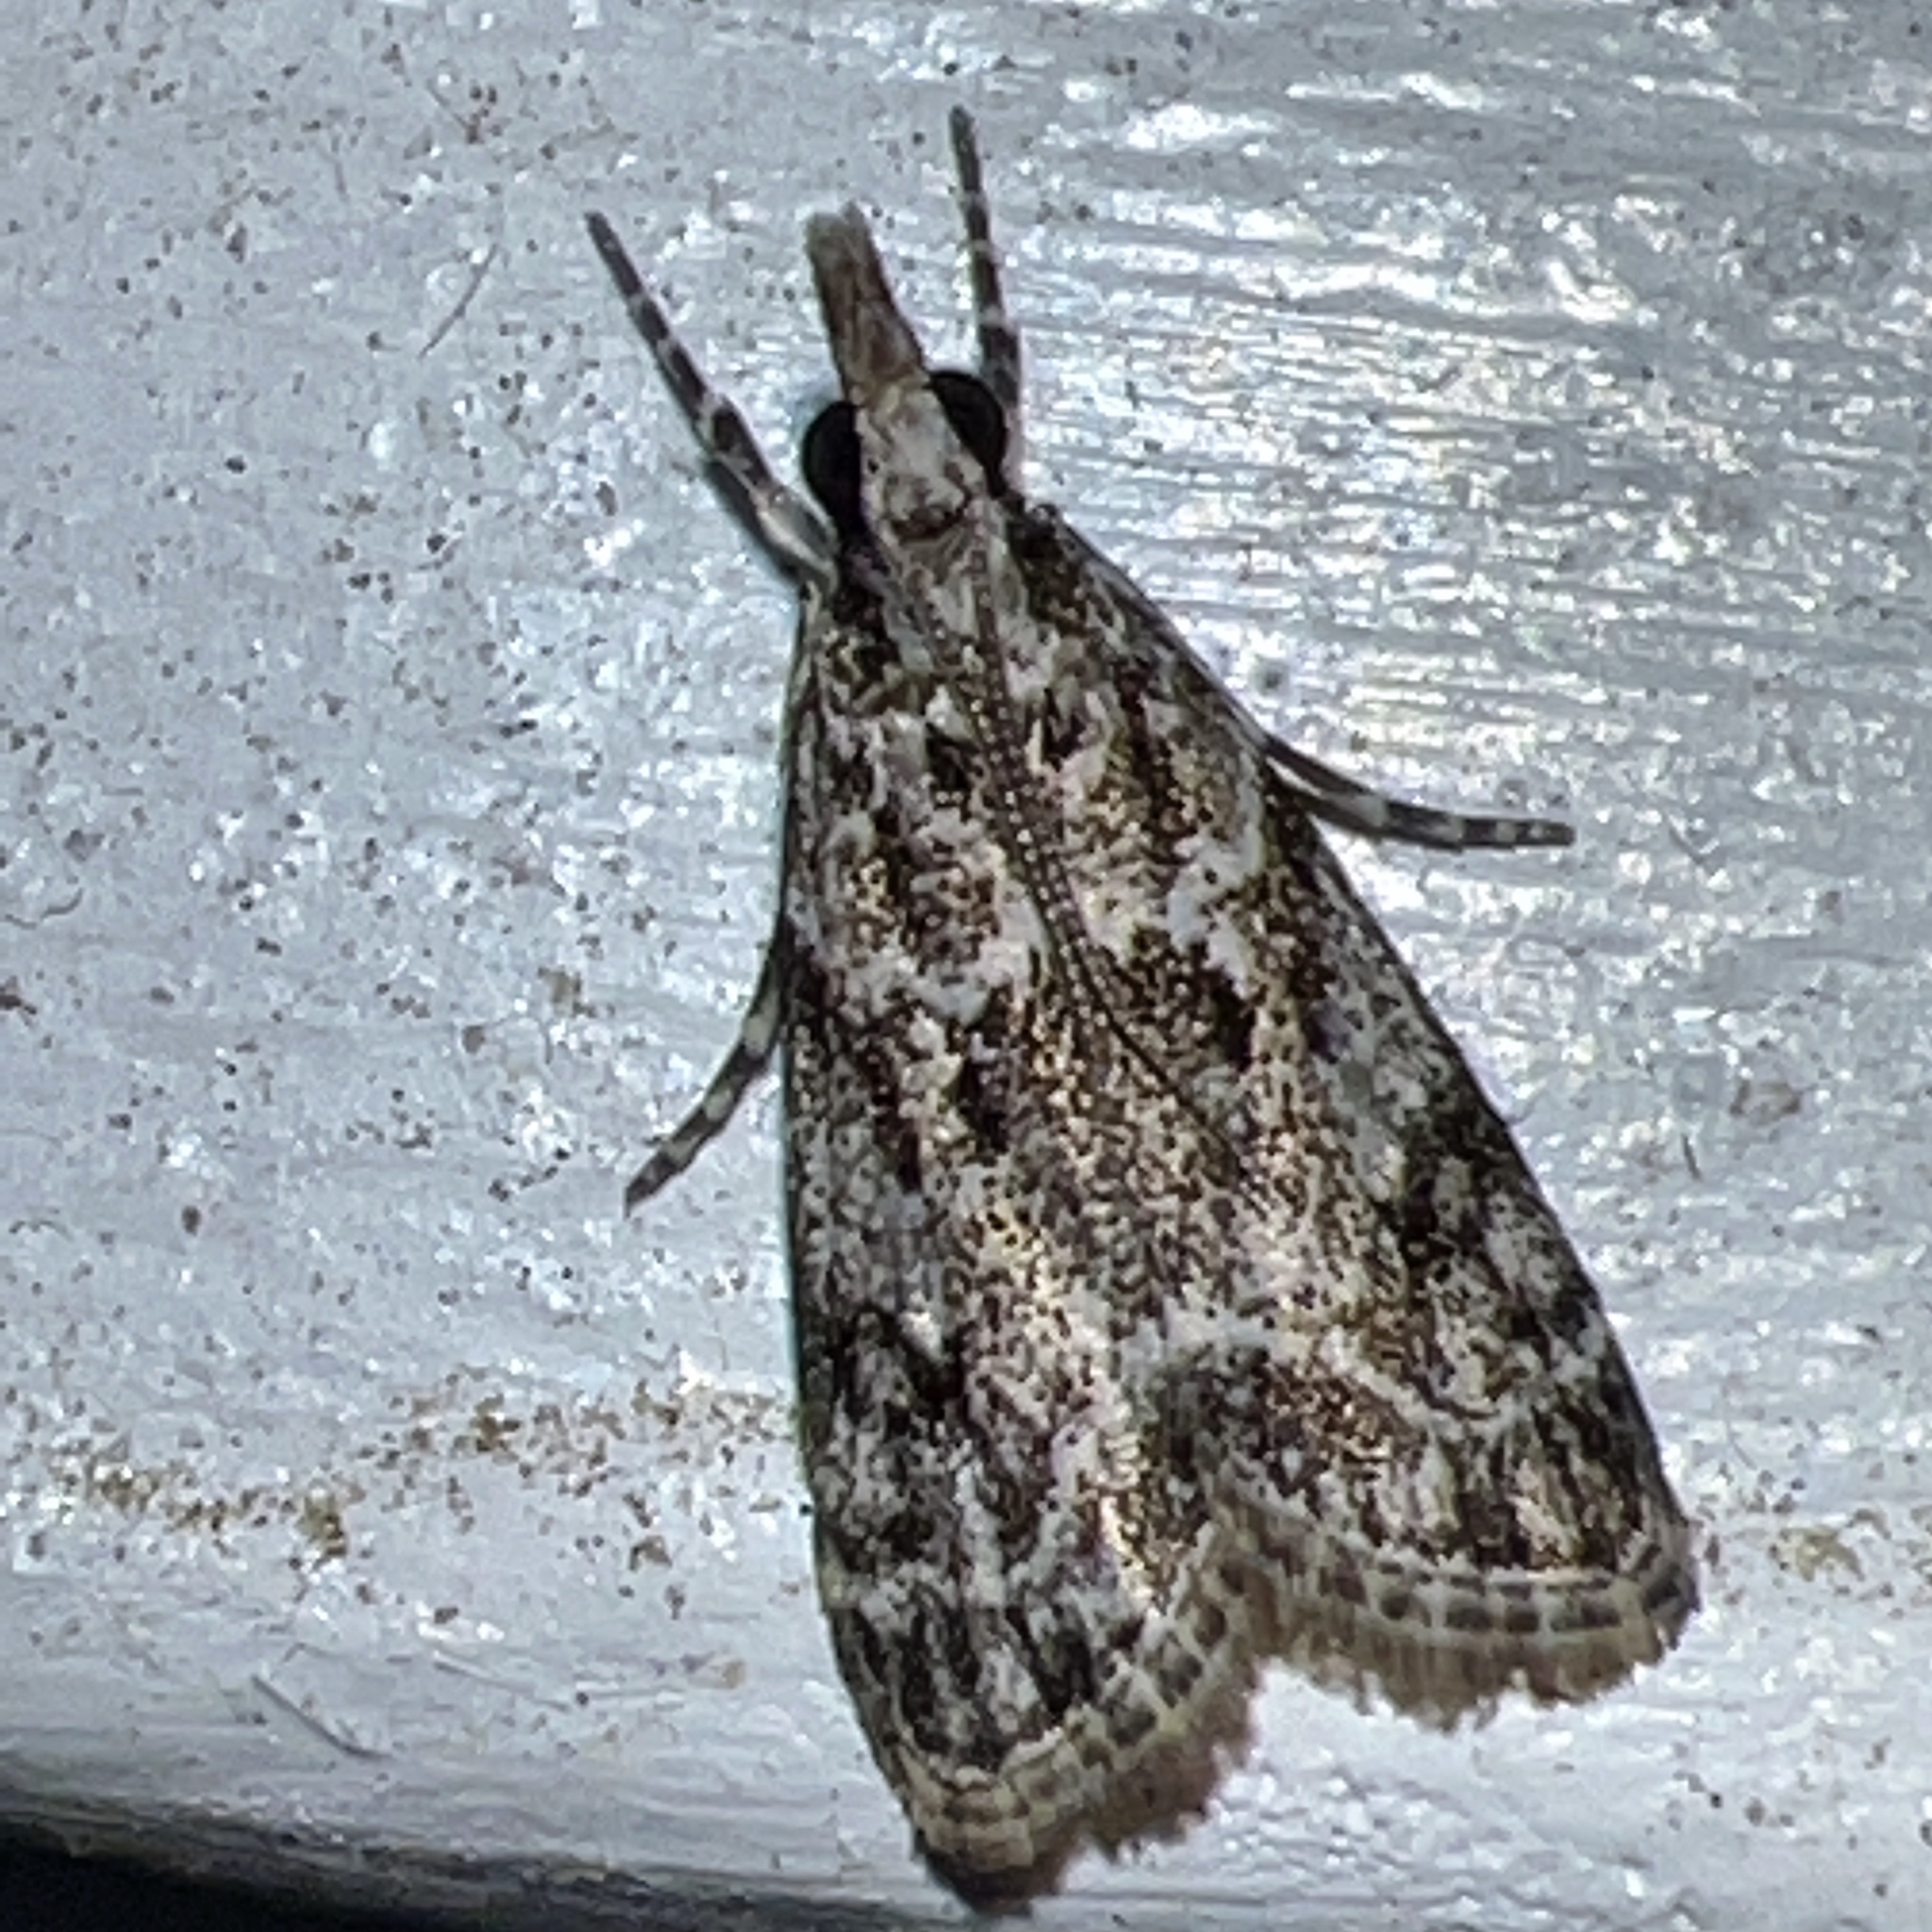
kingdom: Animalia
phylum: Arthropoda
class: Insecta
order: Lepidoptera
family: Crambidae
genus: Eudonia
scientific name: Eudonia heterosalis
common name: Mcdunnough's eudonia
